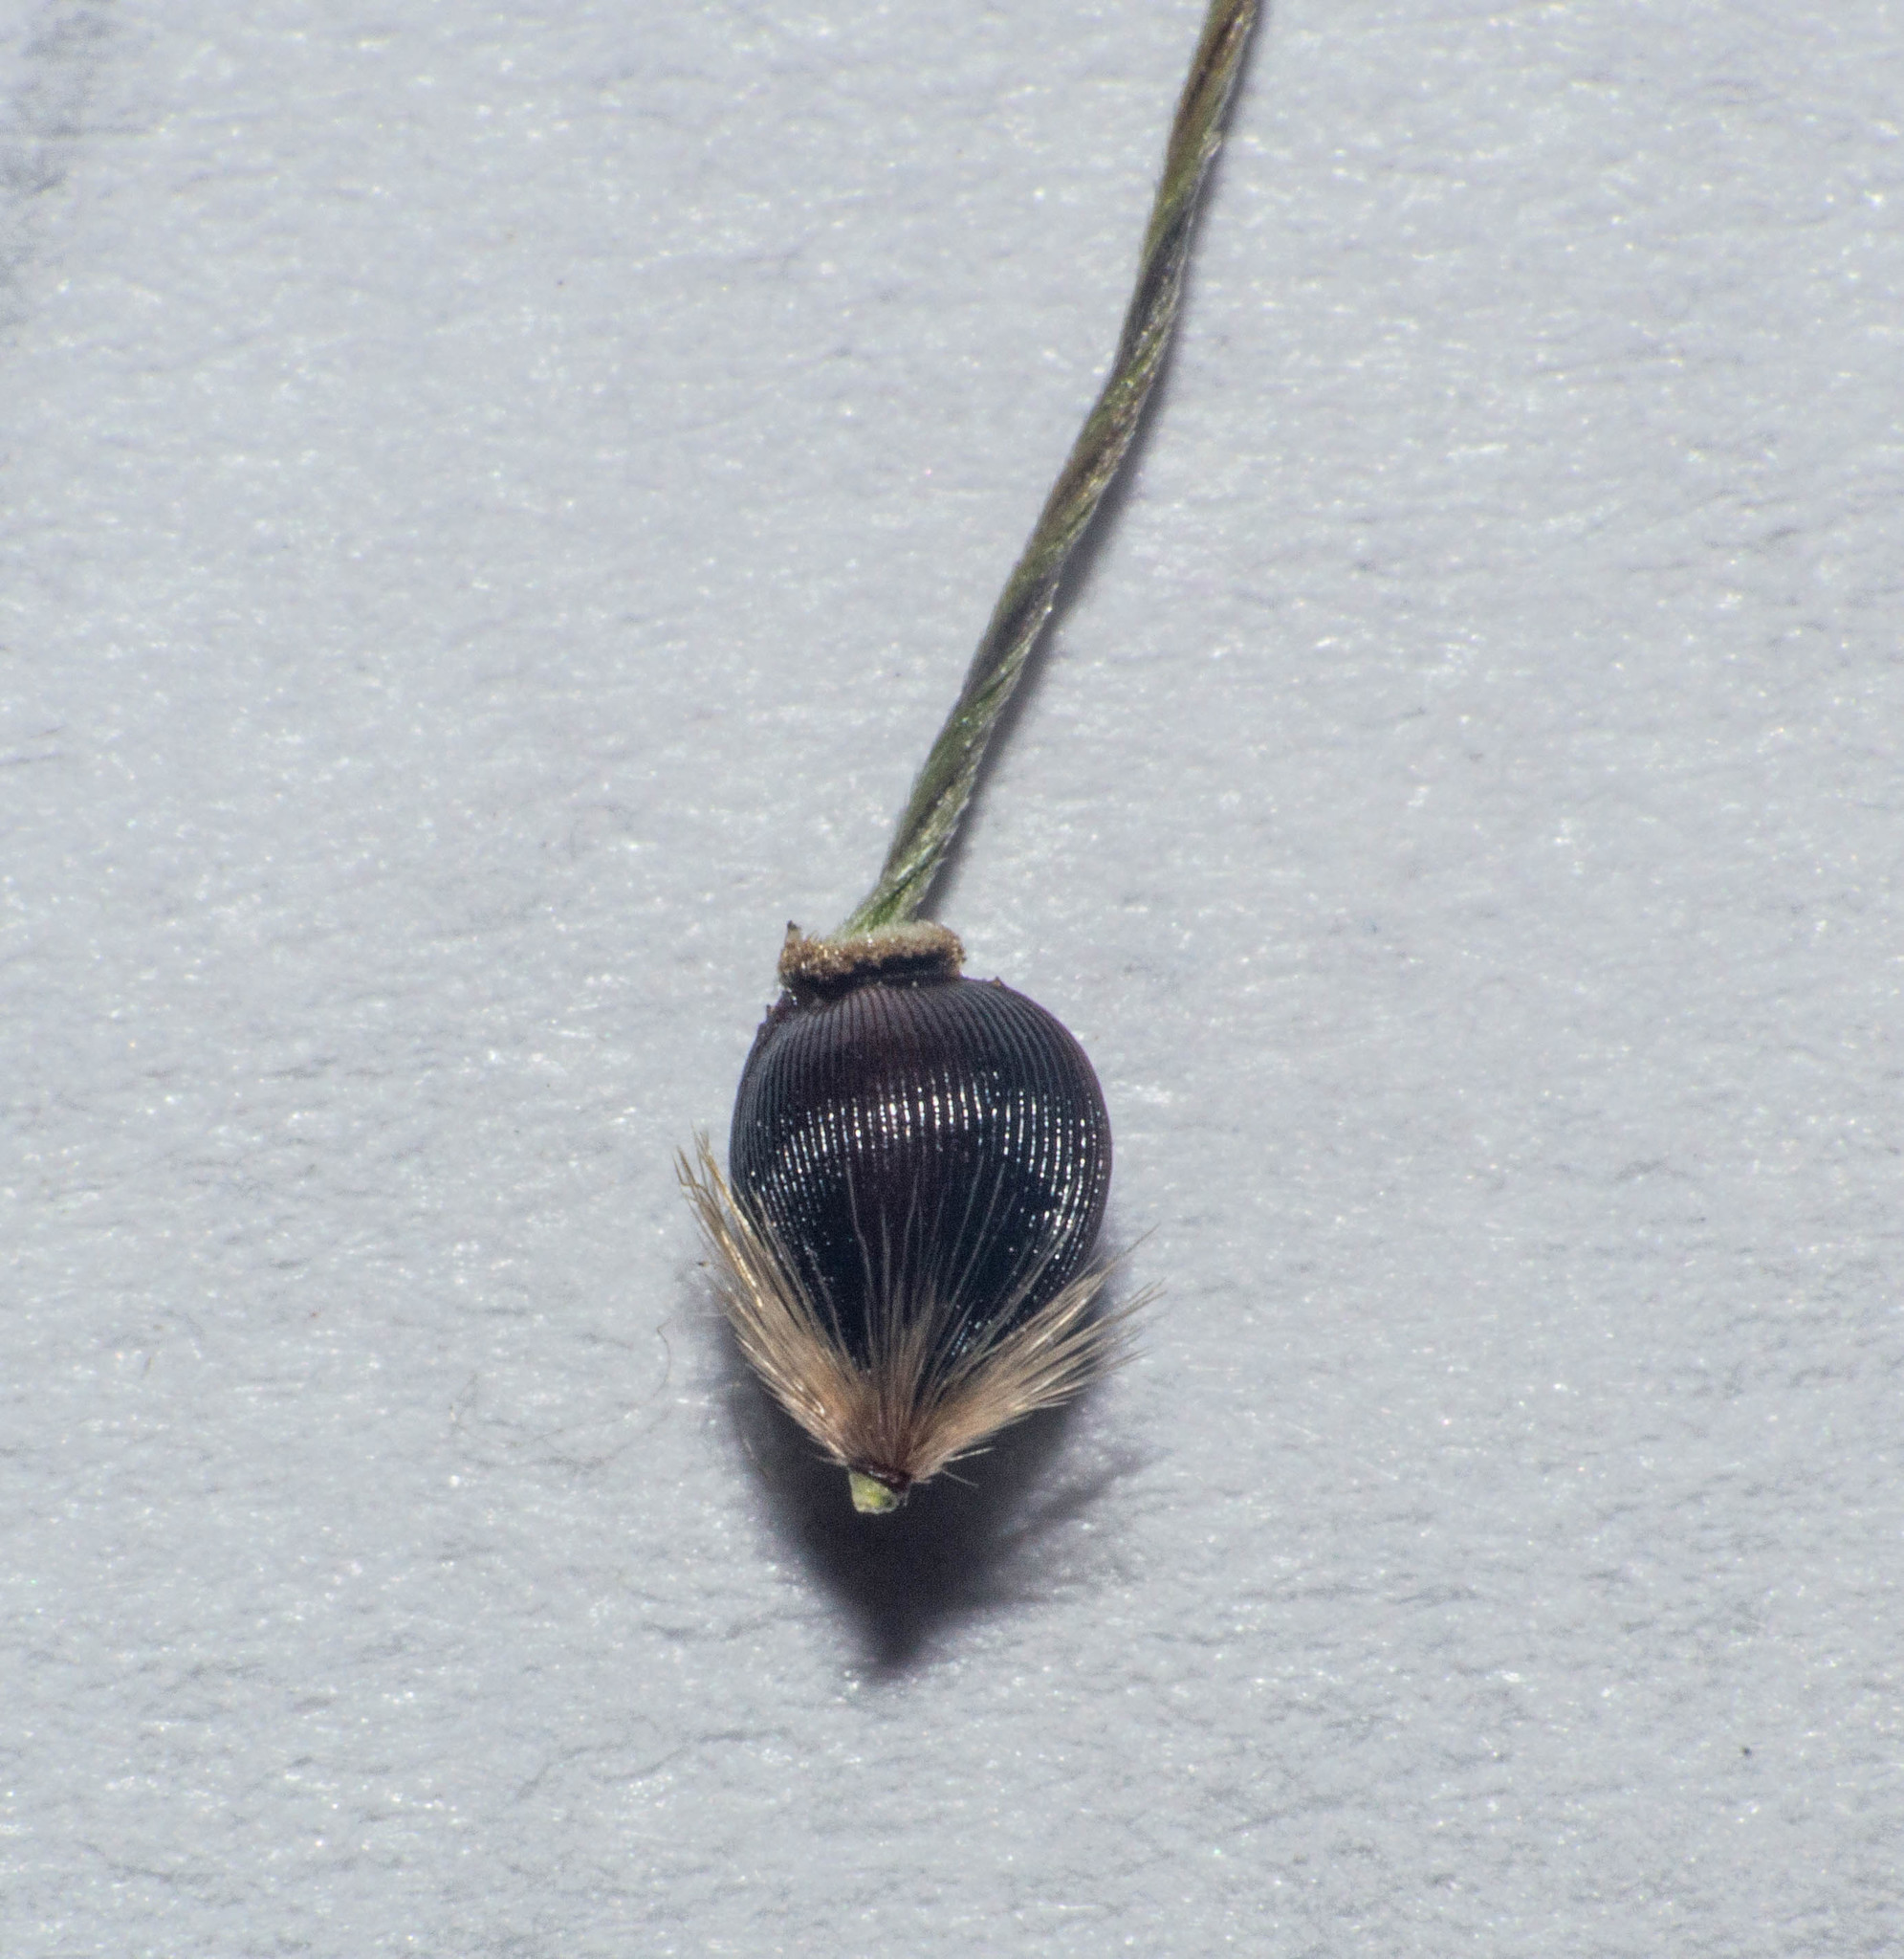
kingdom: Plantae
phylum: Tracheophyta
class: Liliopsida
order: Poales
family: Poaceae
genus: Piptochaetium
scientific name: Piptochaetium stipoides
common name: Purple speargrass
